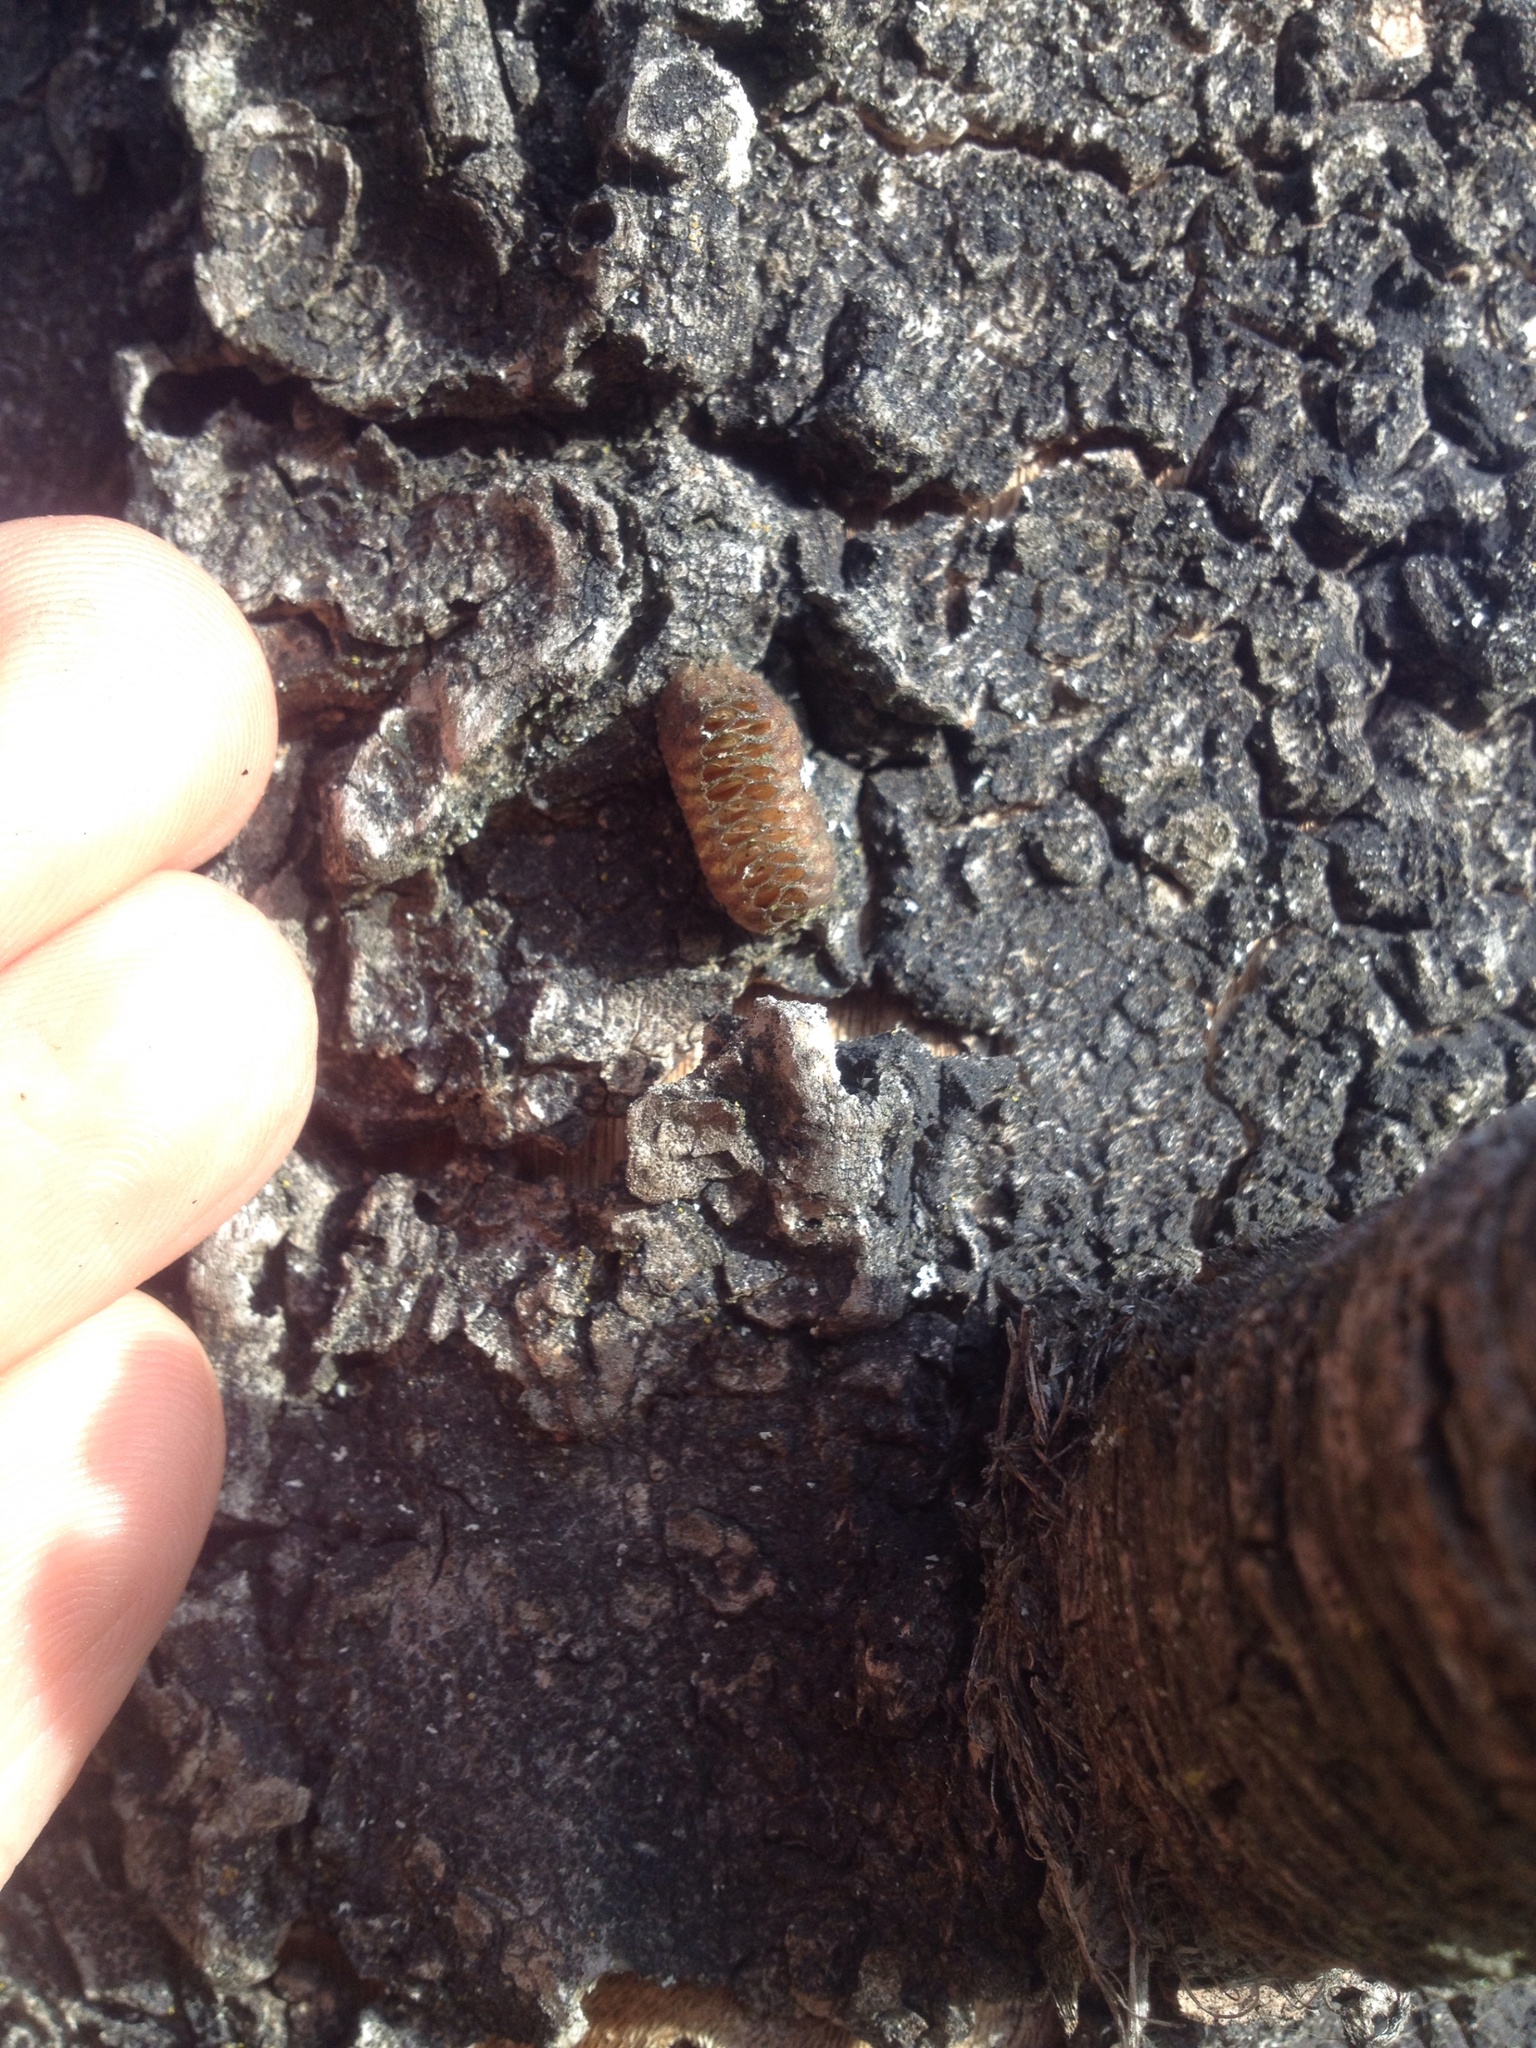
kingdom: Animalia
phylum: Arthropoda
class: Insecta
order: Mantodea
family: Mantidae
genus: Orthodera
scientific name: Orthodera novaezealandiae
